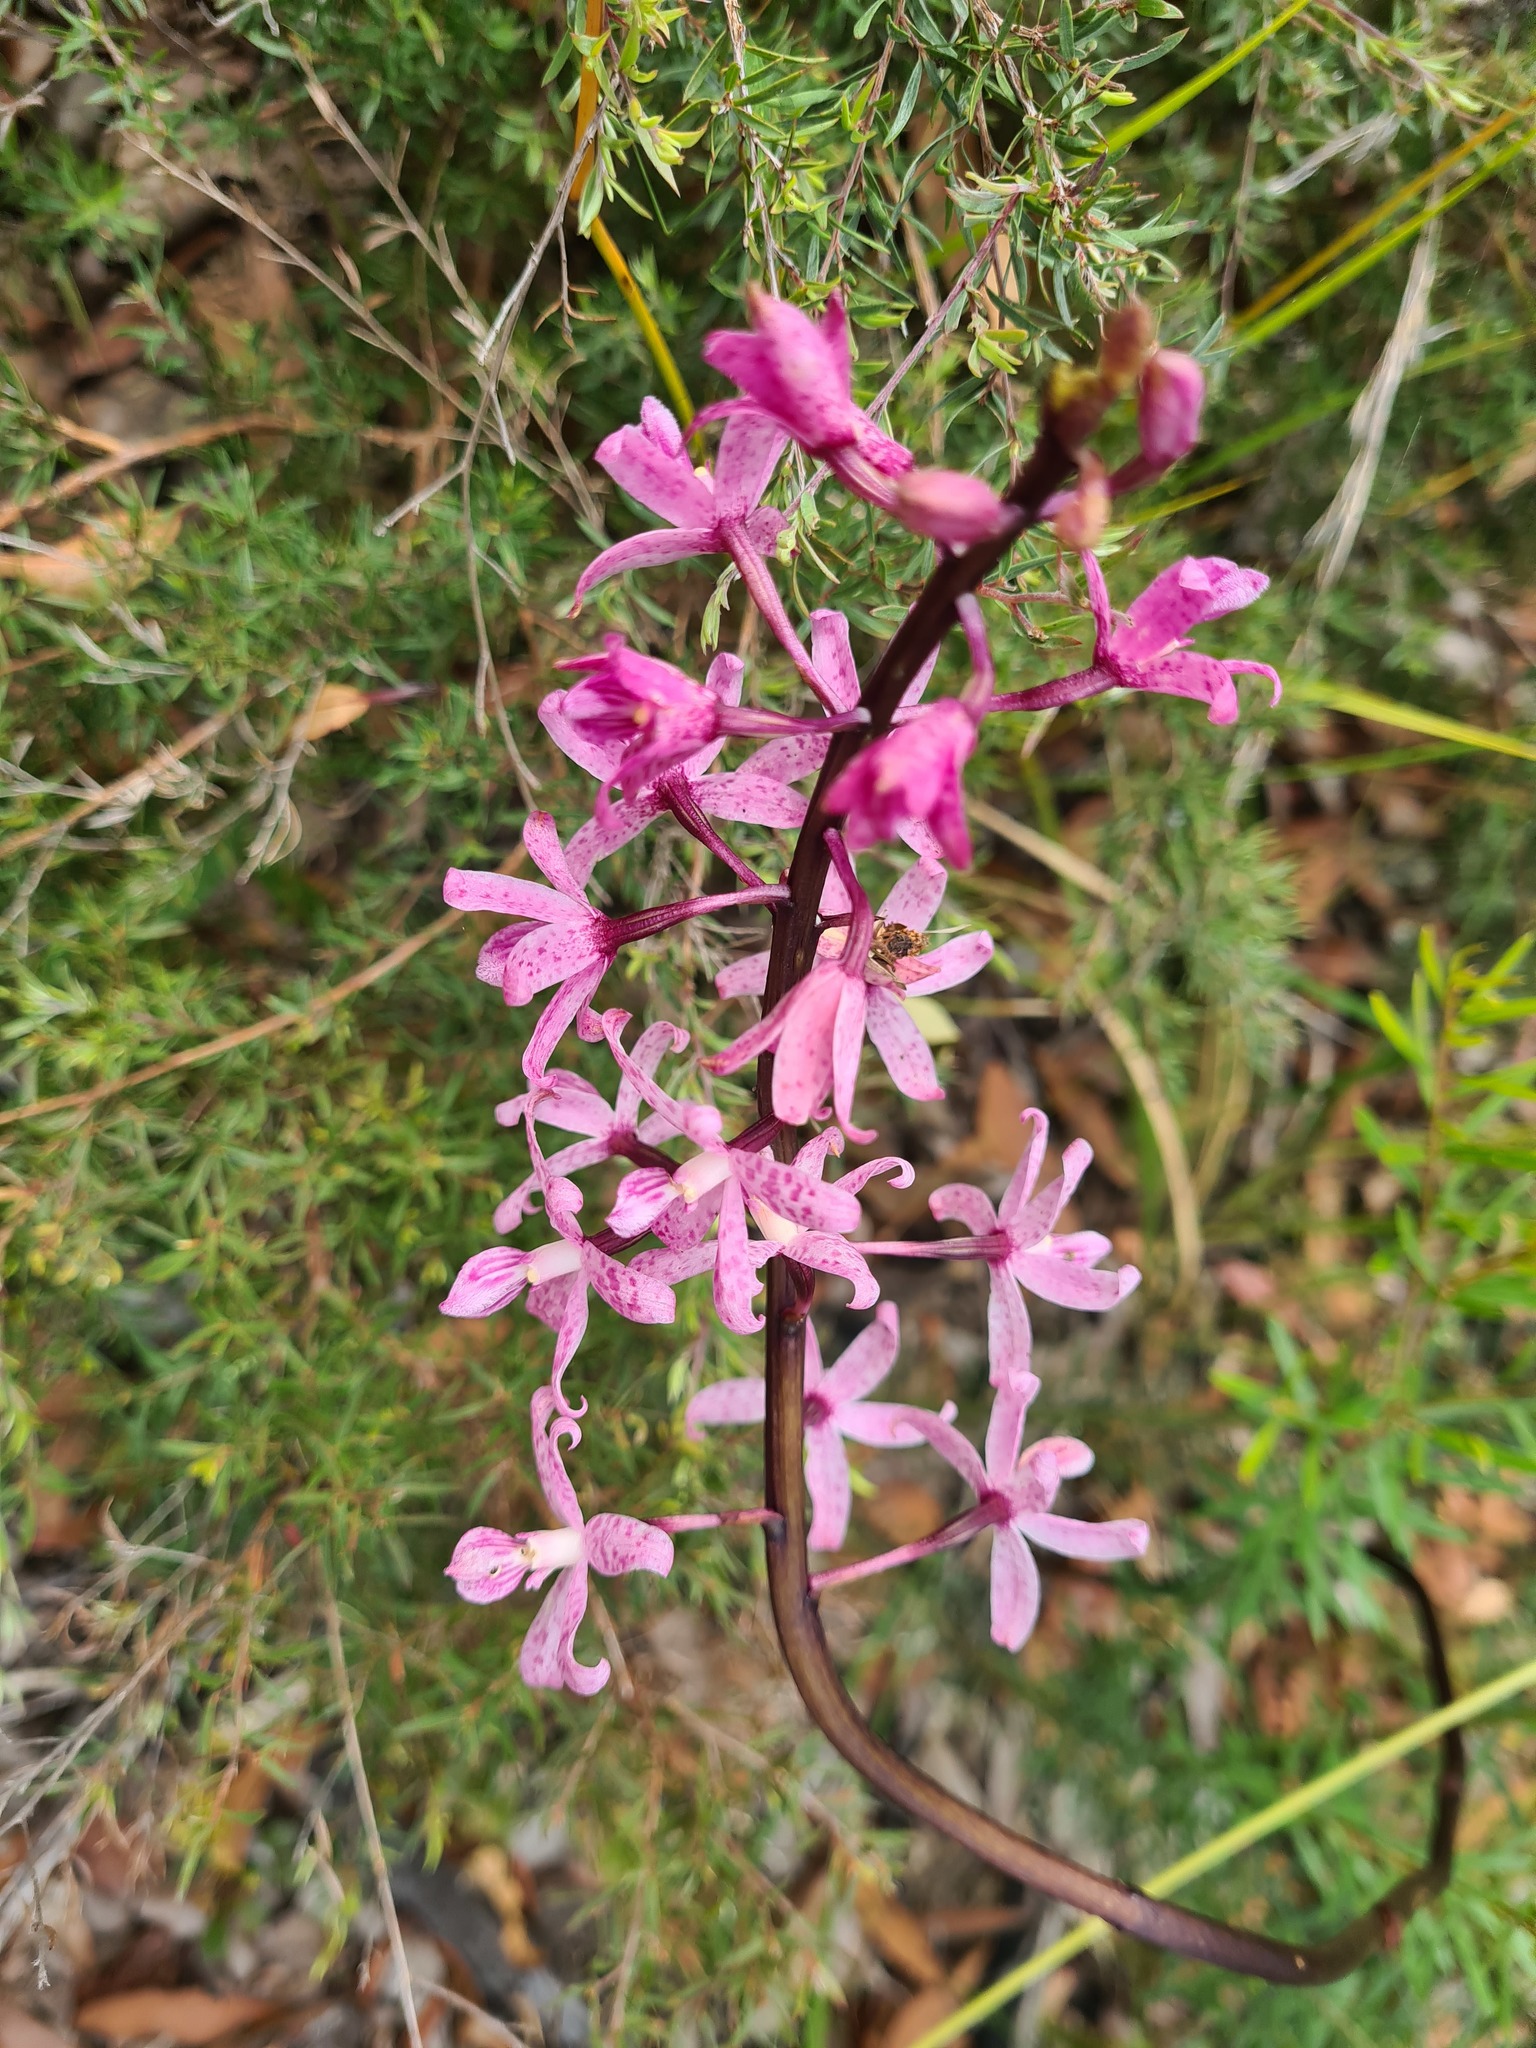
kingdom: Plantae
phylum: Tracheophyta
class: Liliopsida
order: Asparagales
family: Orchidaceae
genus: Dipodium
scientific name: Dipodium roseum
